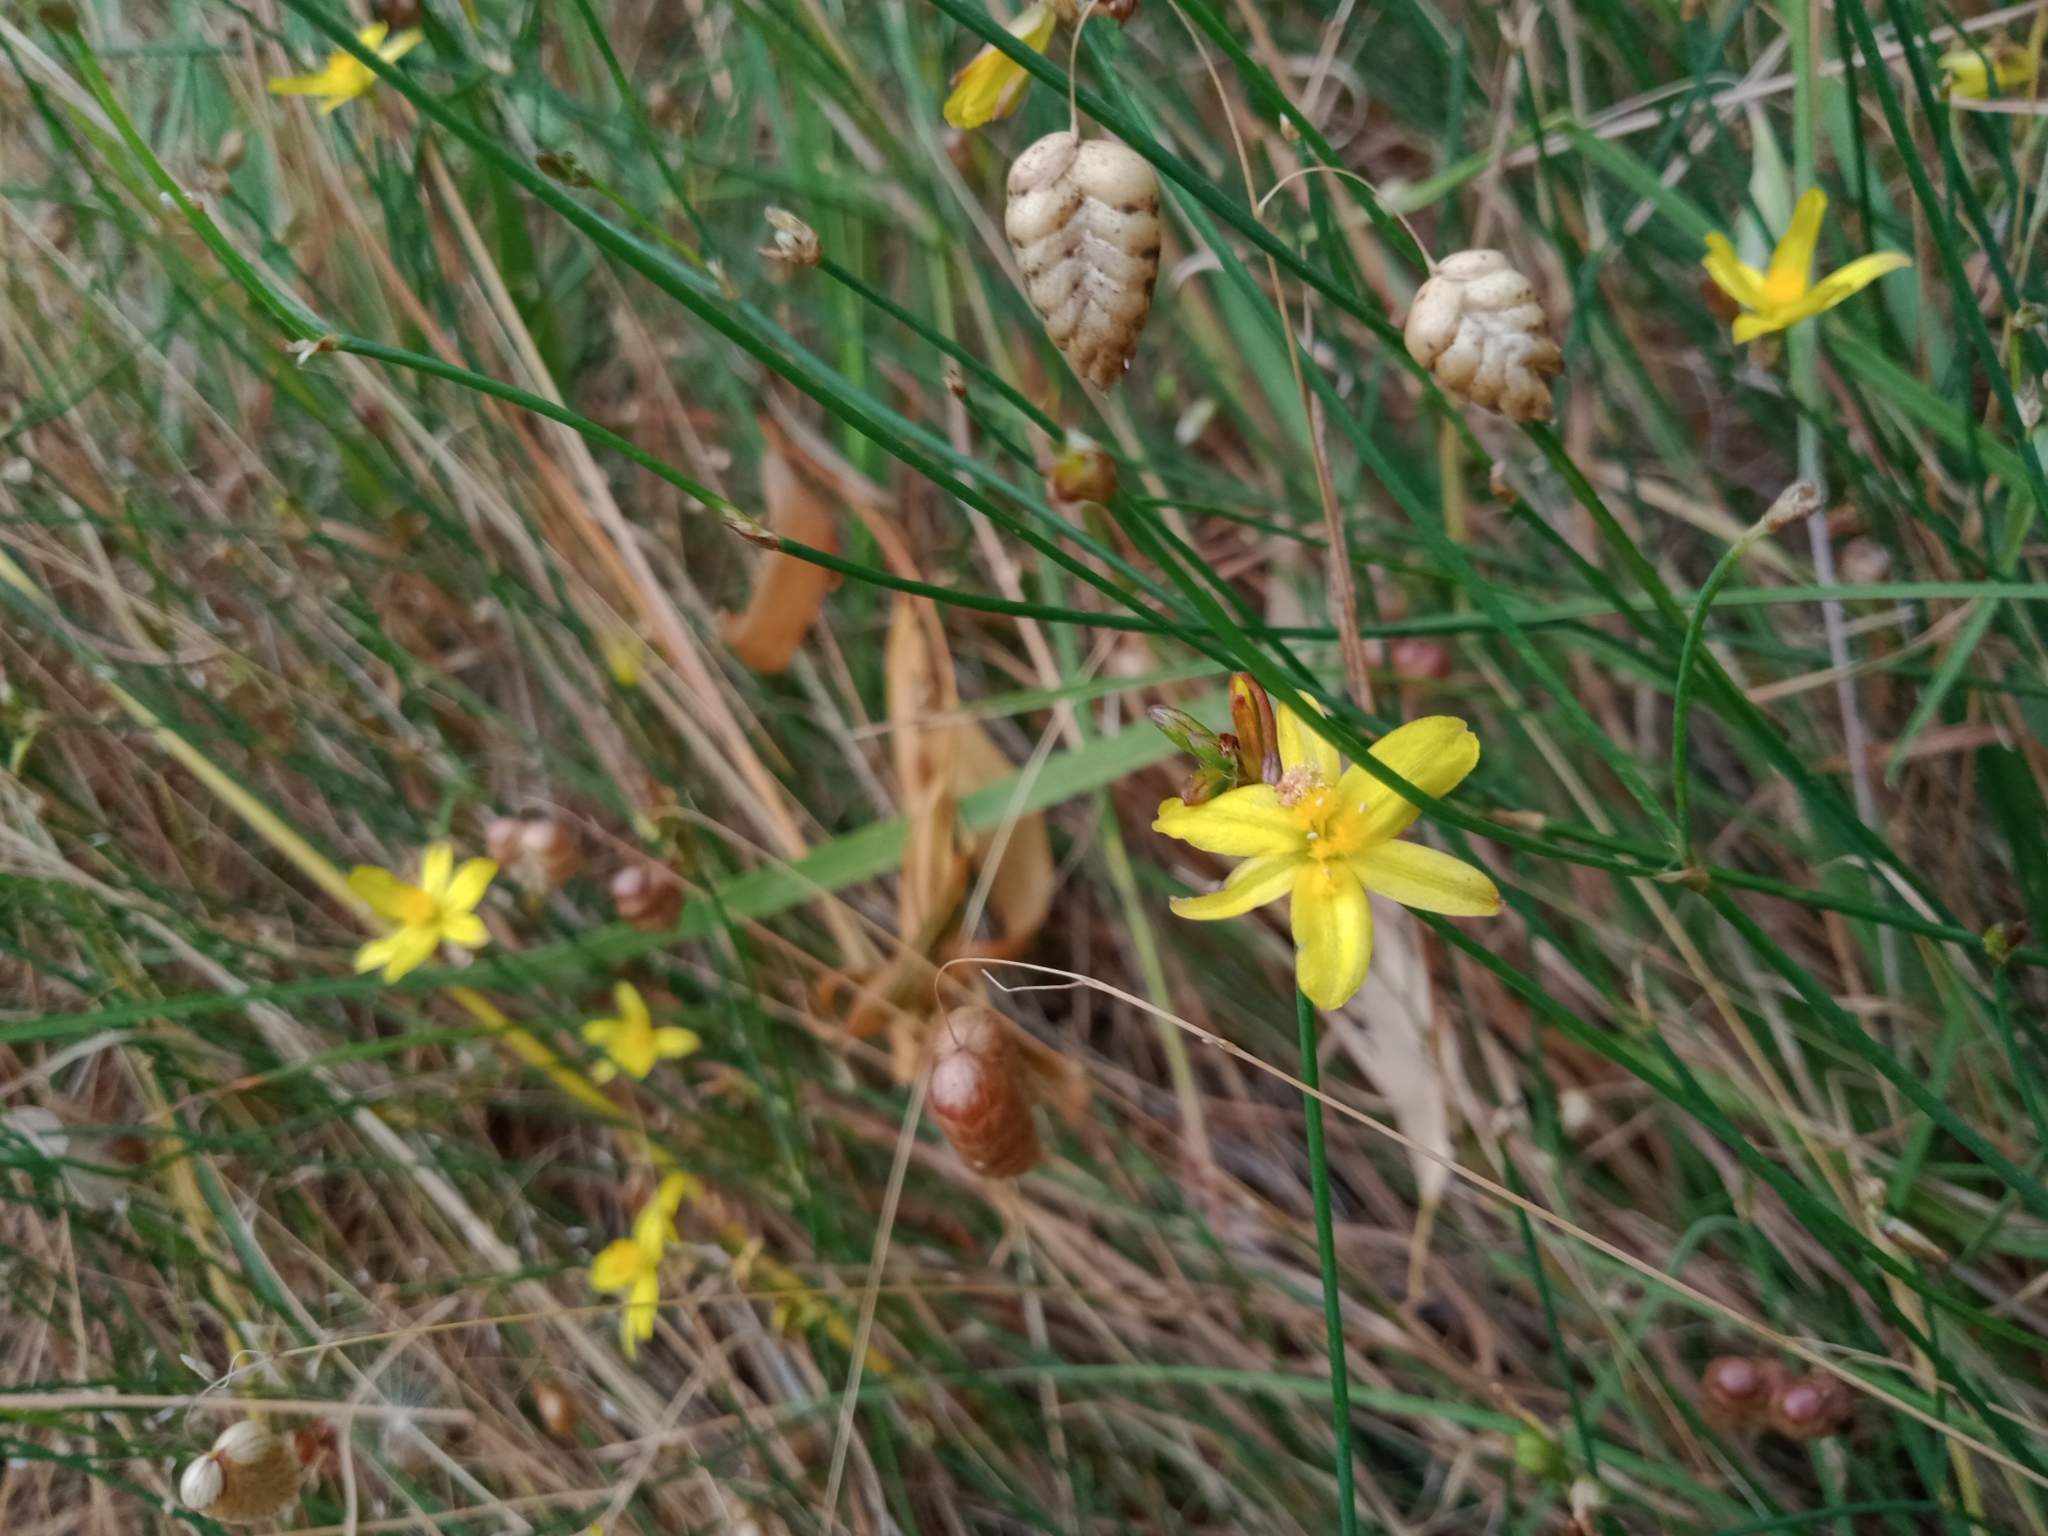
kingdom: Plantae
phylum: Tracheophyta
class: Liliopsida
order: Asparagales
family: Asphodelaceae
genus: Tricoryne
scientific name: Tricoryne elatior
